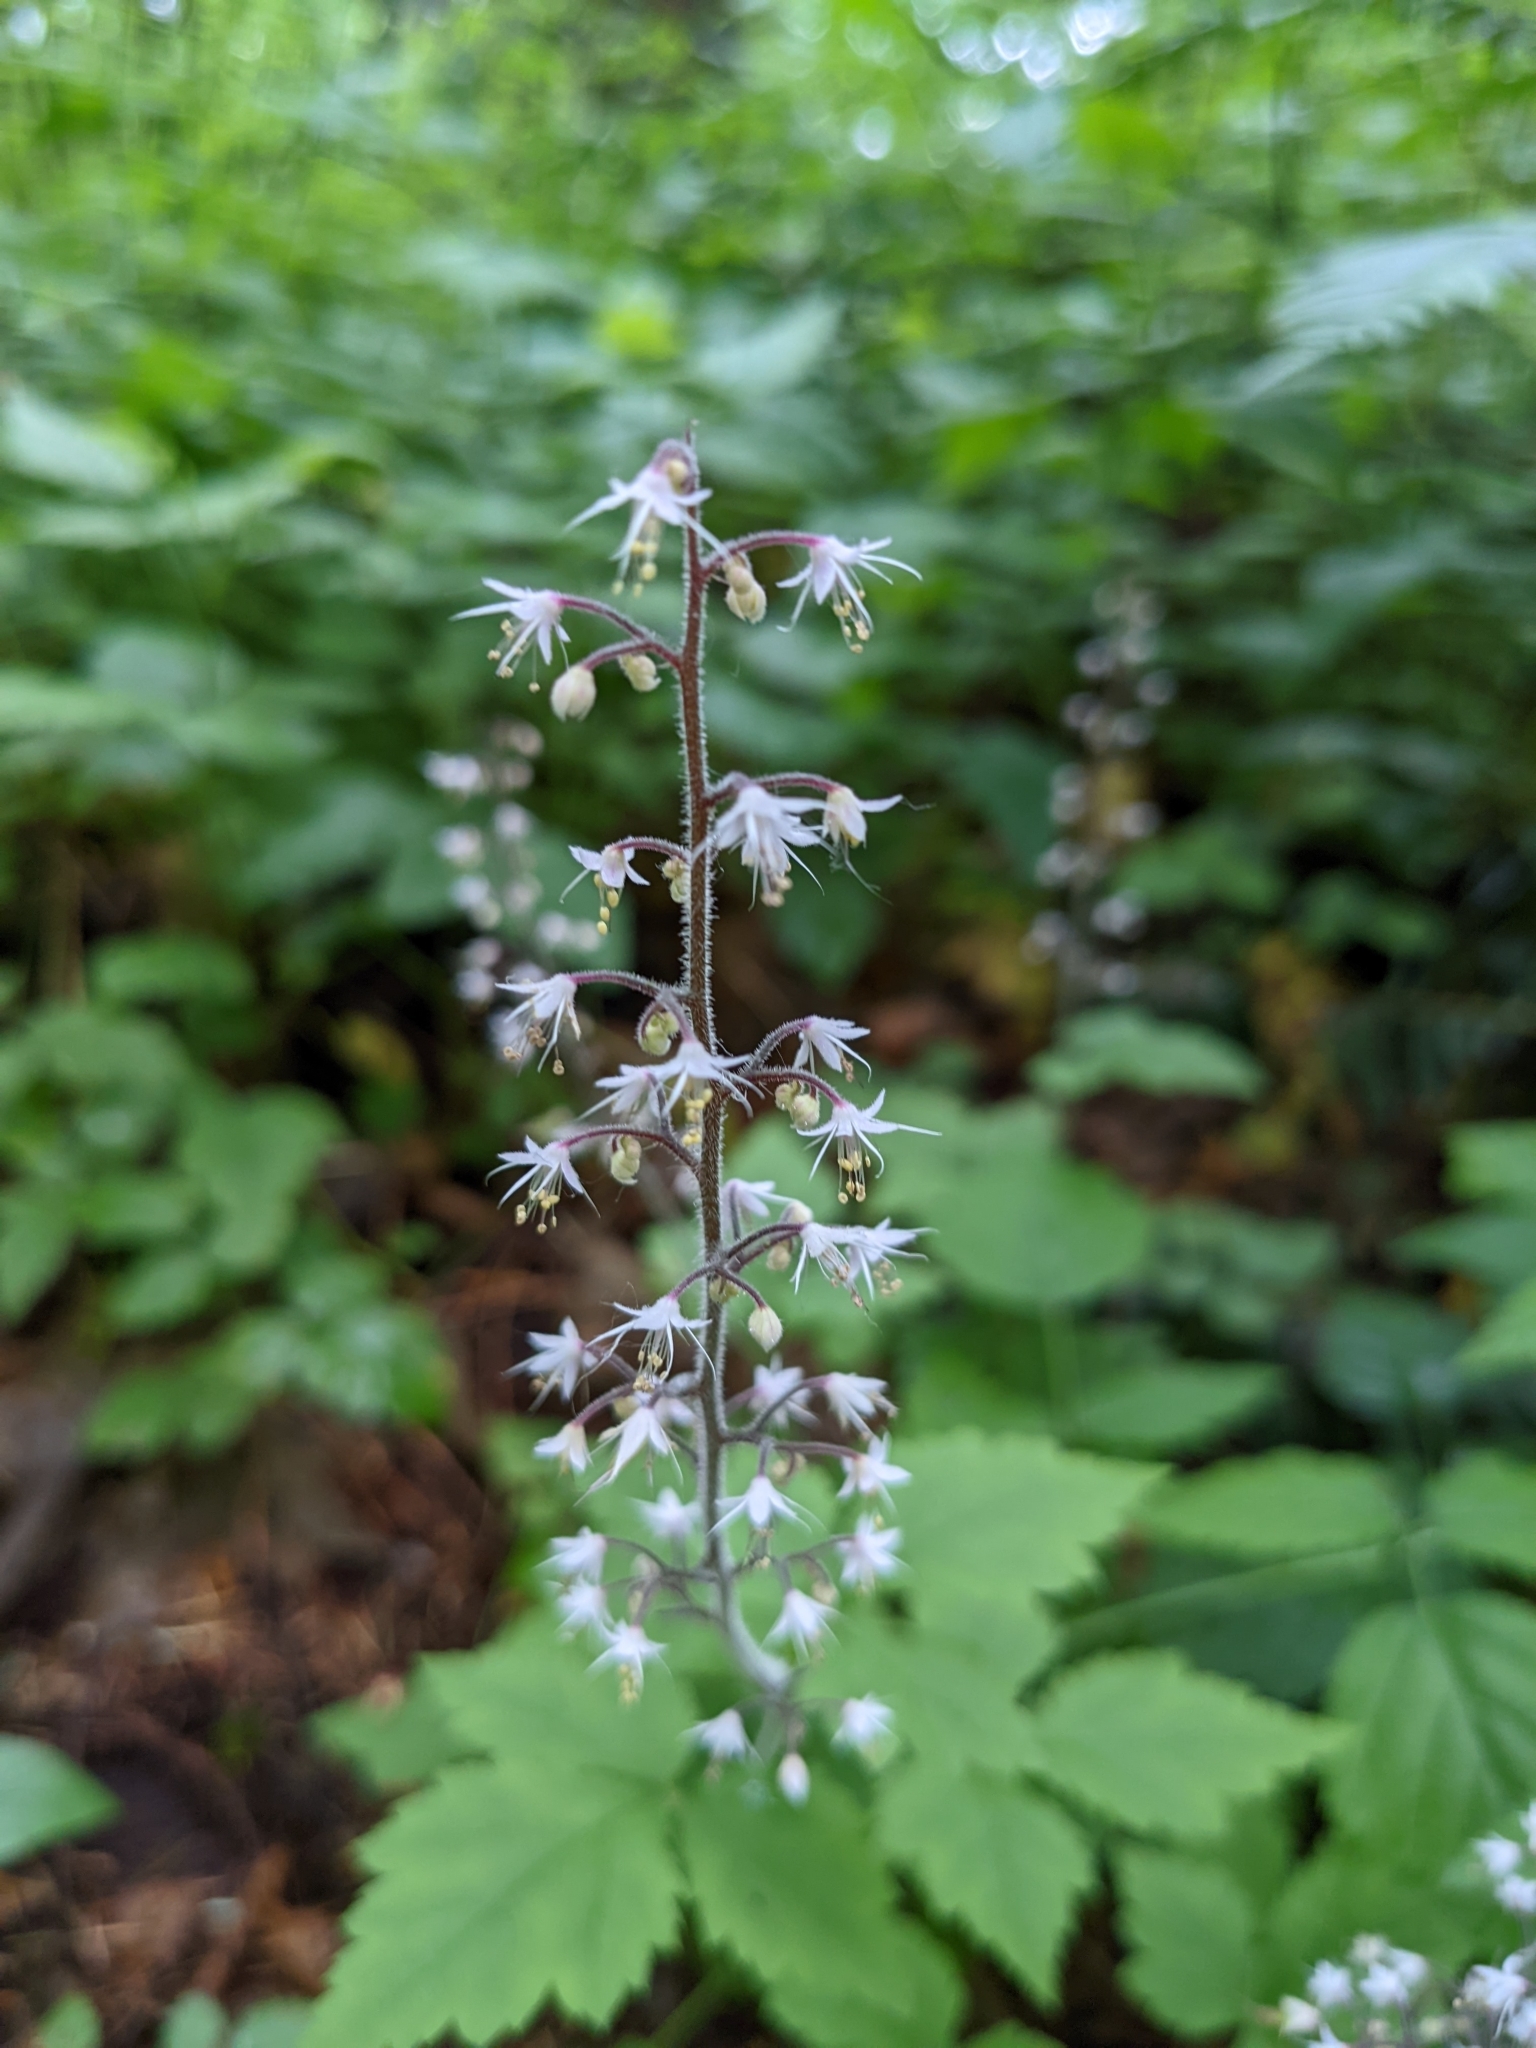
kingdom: Plantae
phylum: Tracheophyta
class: Magnoliopsida
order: Saxifragales
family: Saxifragaceae
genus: Tiarella
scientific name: Tiarella trifoliata
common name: Sugar-scoop
